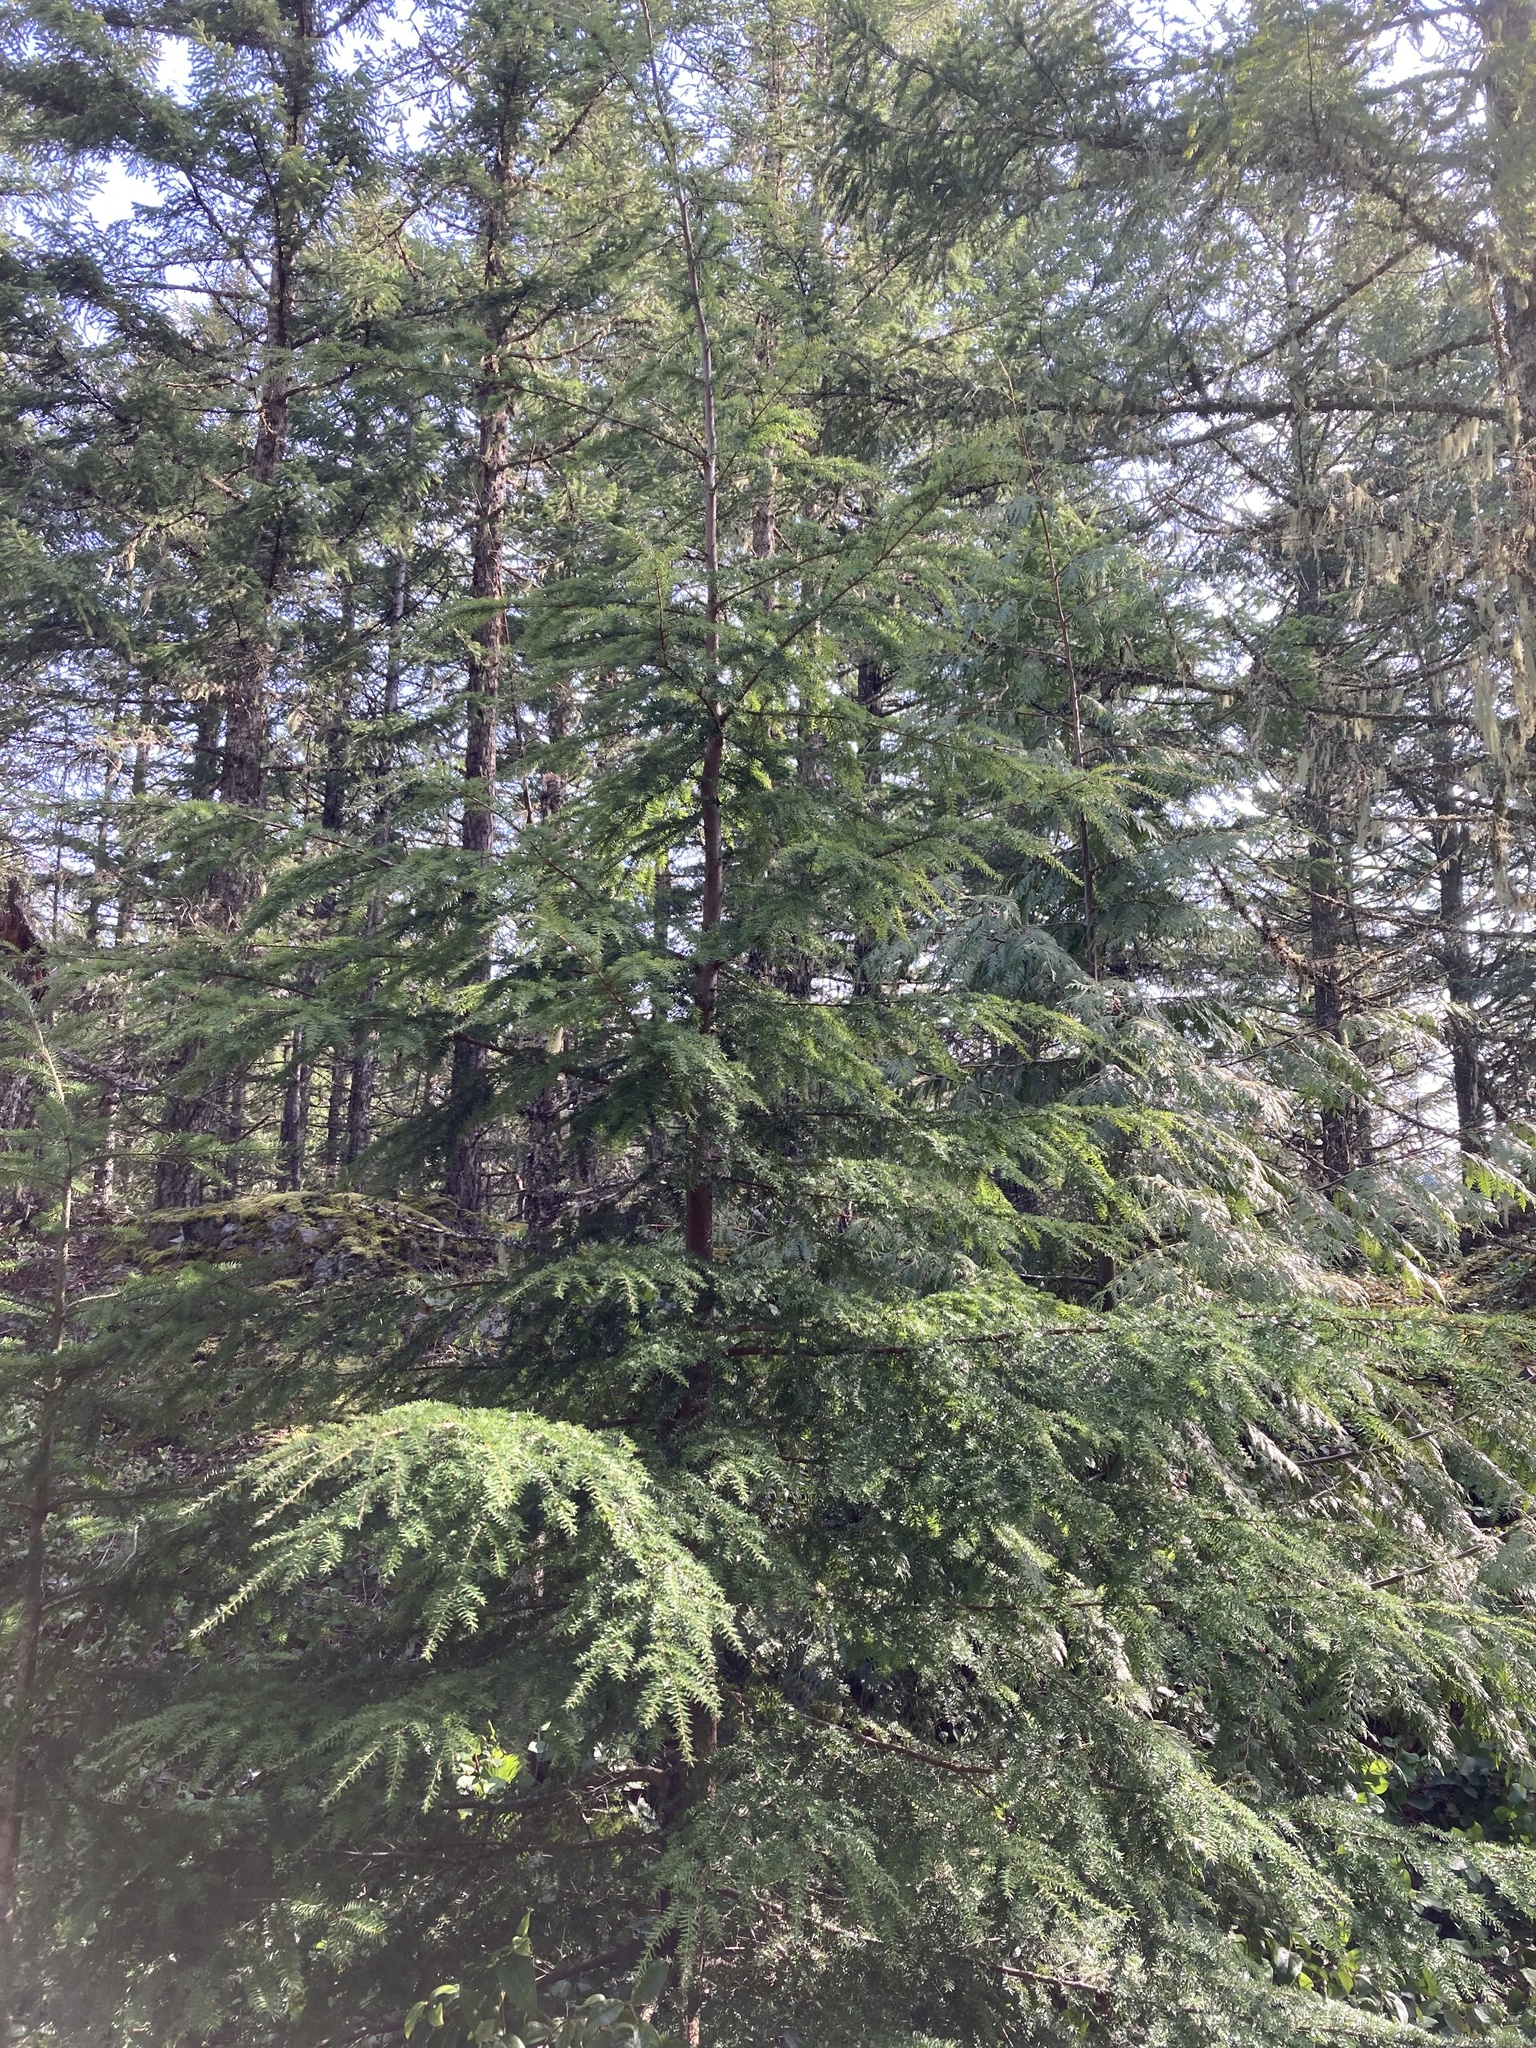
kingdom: Plantae
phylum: Tracheophyta
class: Pinopsida
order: Pinales
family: Pinaceae
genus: Tsuga
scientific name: Tsuga heterophylla
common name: Western hemlock
